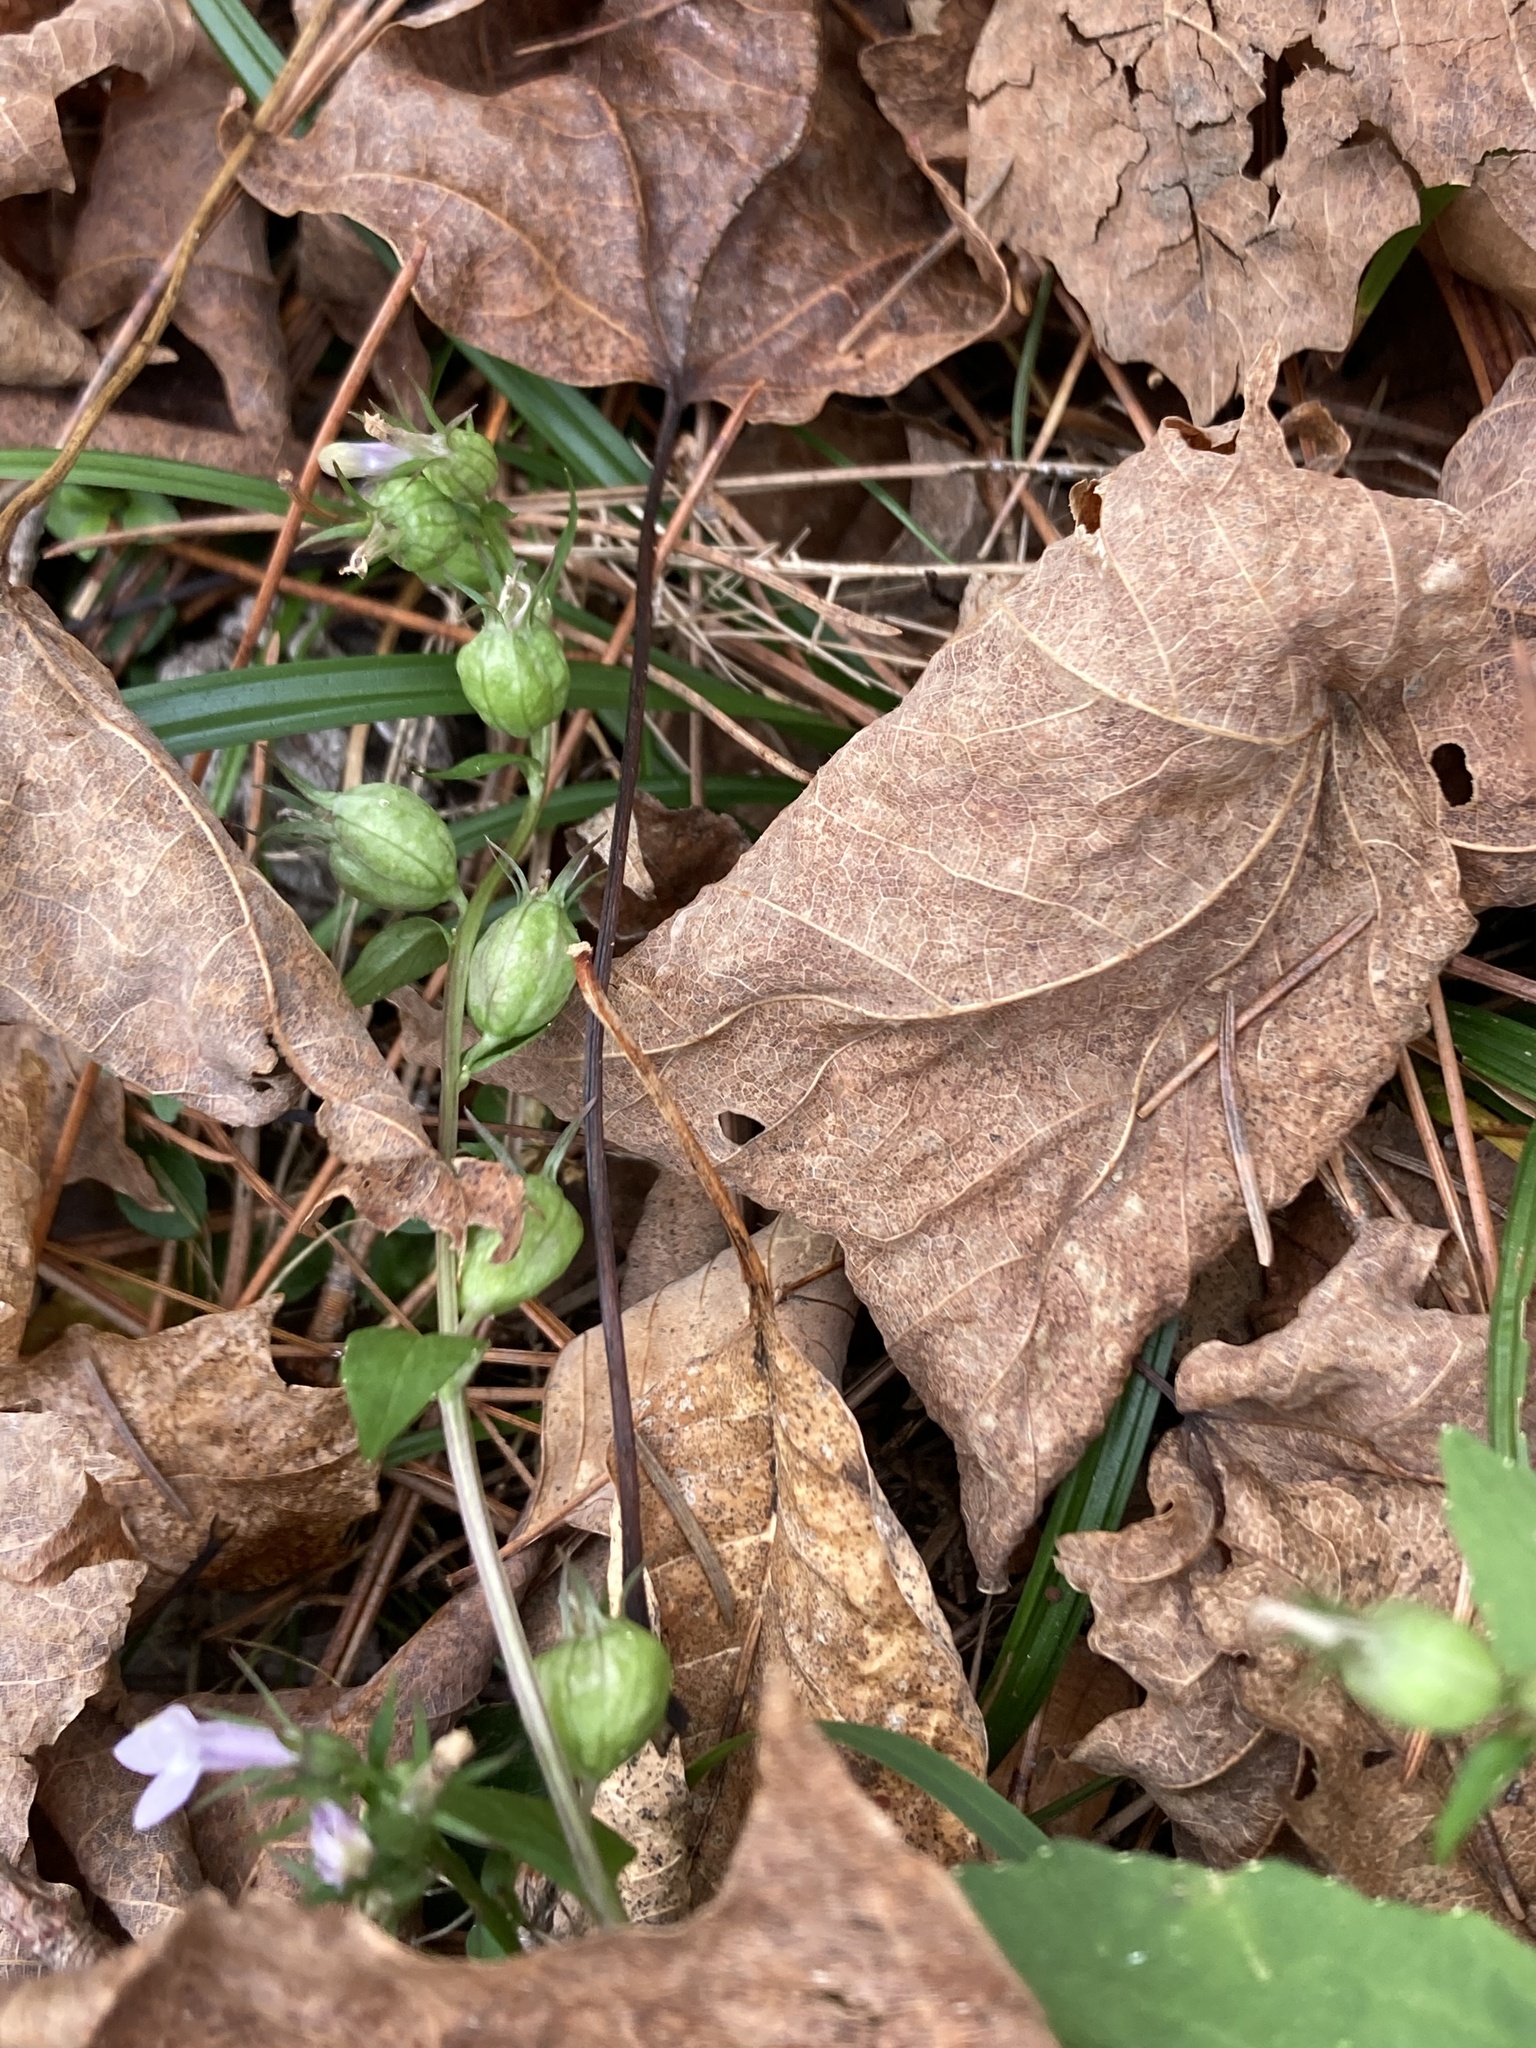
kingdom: Plantae
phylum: Tracheophyta
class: Magnoliopsida
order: Asterales
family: Campanulaceae
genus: Lobelia
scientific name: Lobelia inflata
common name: Indian tobacco
